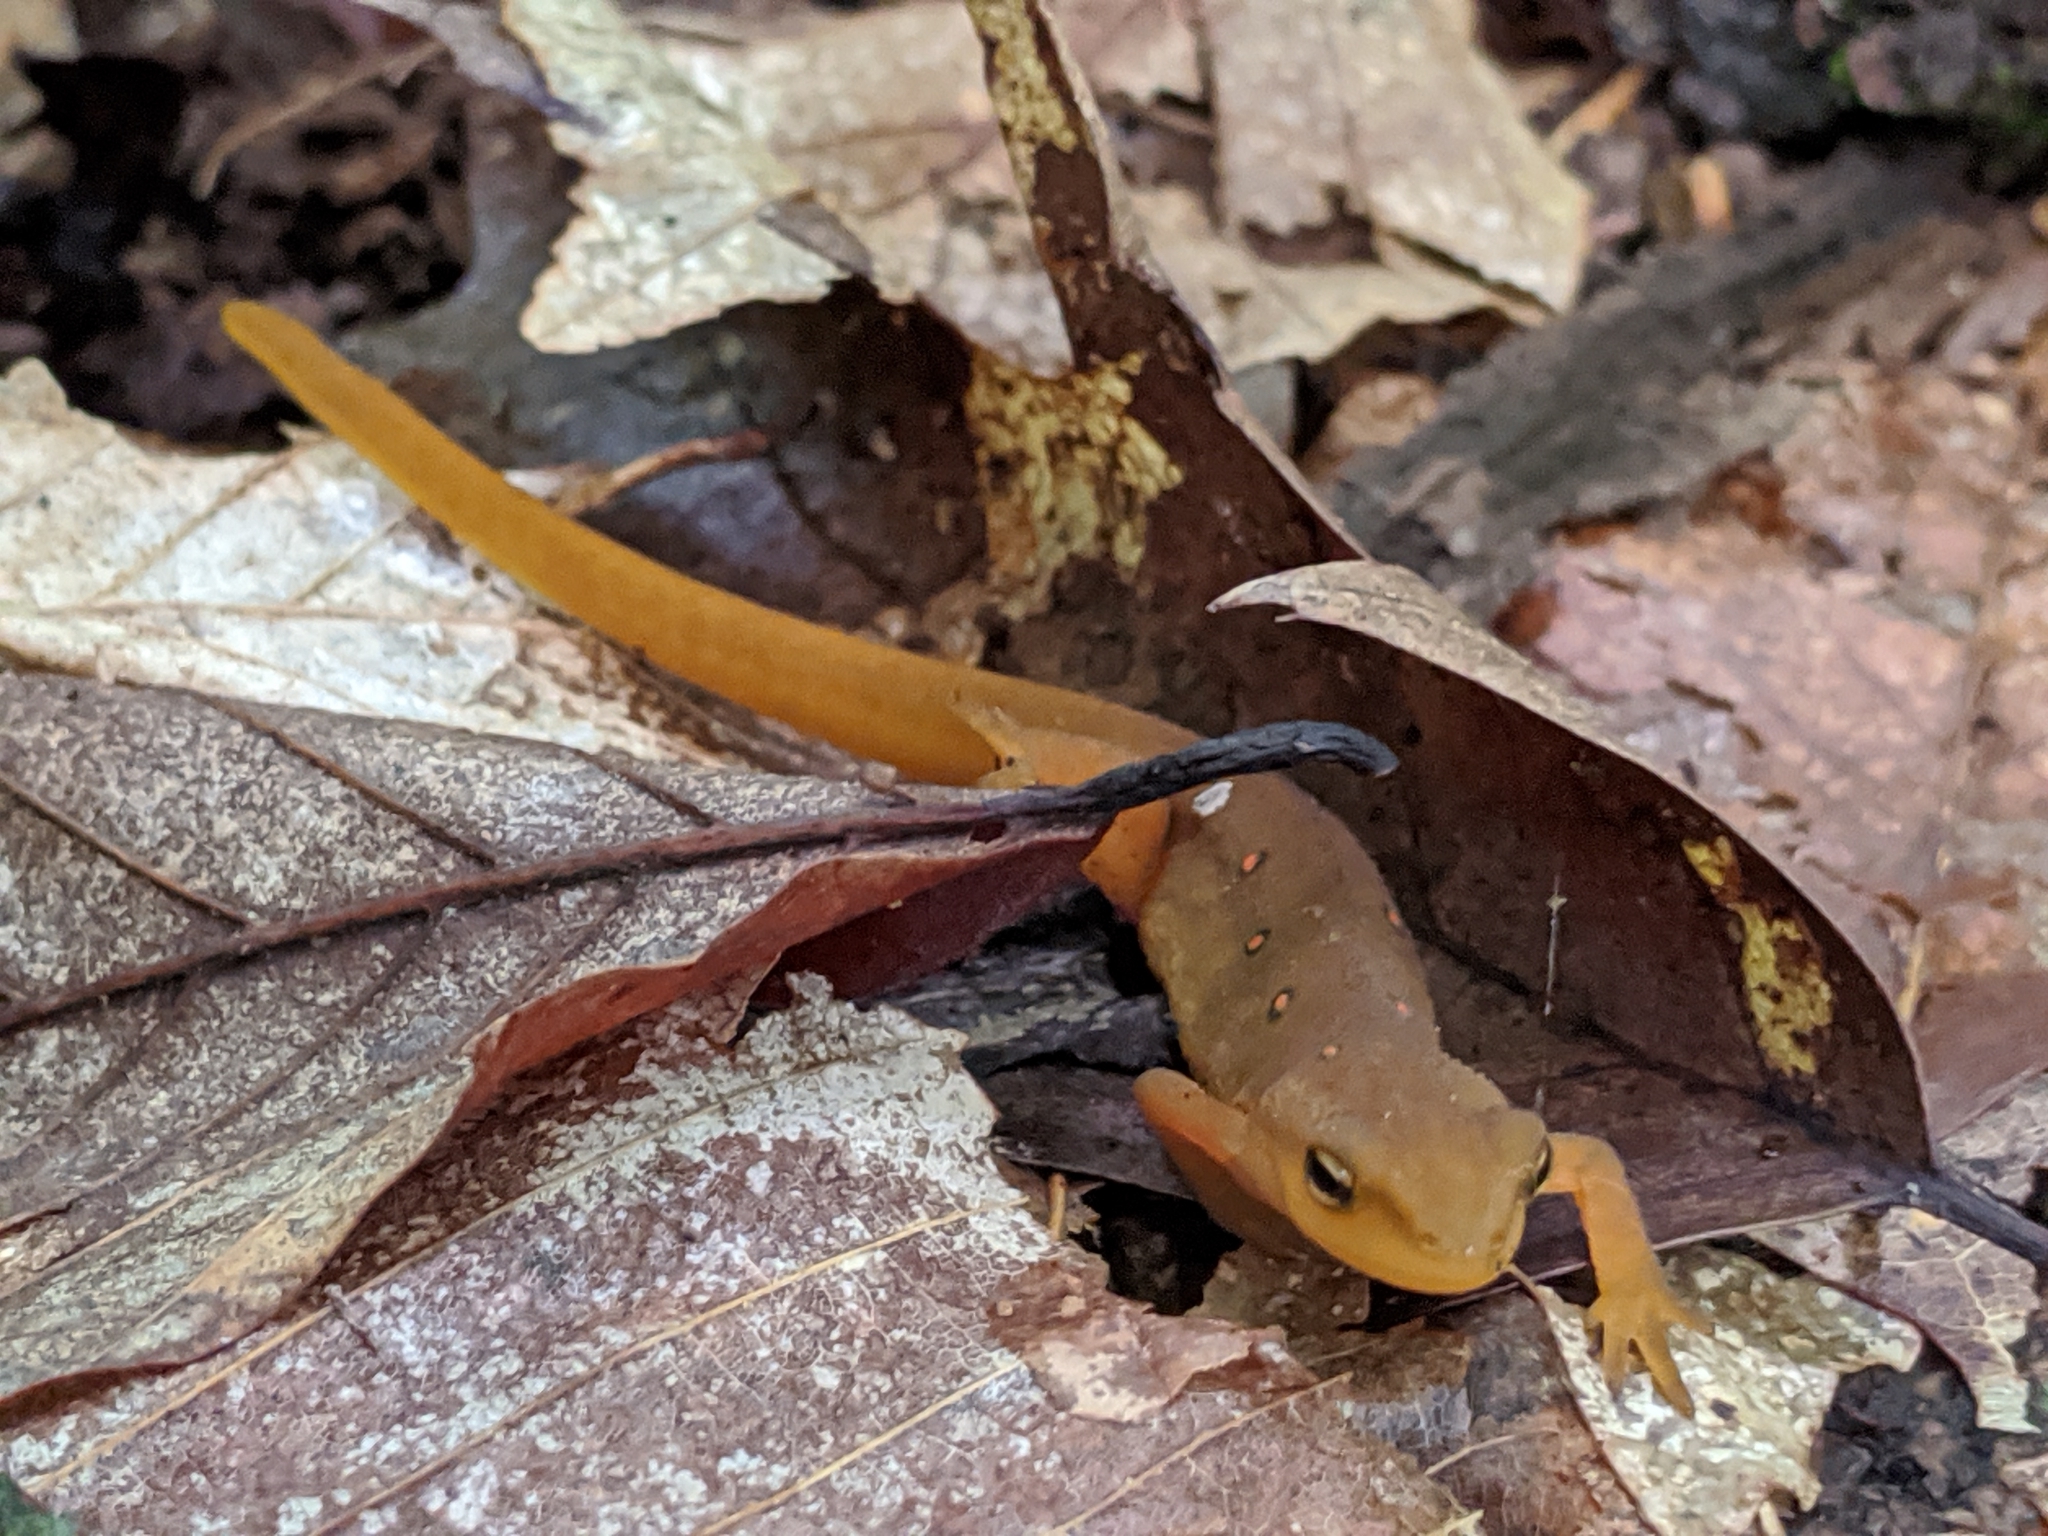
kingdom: Animalia
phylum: Chordata
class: Amphibia
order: Caudata
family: Salamandridae
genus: Notophthalmus
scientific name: Notophthalmus viridescens
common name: Eastern newt
